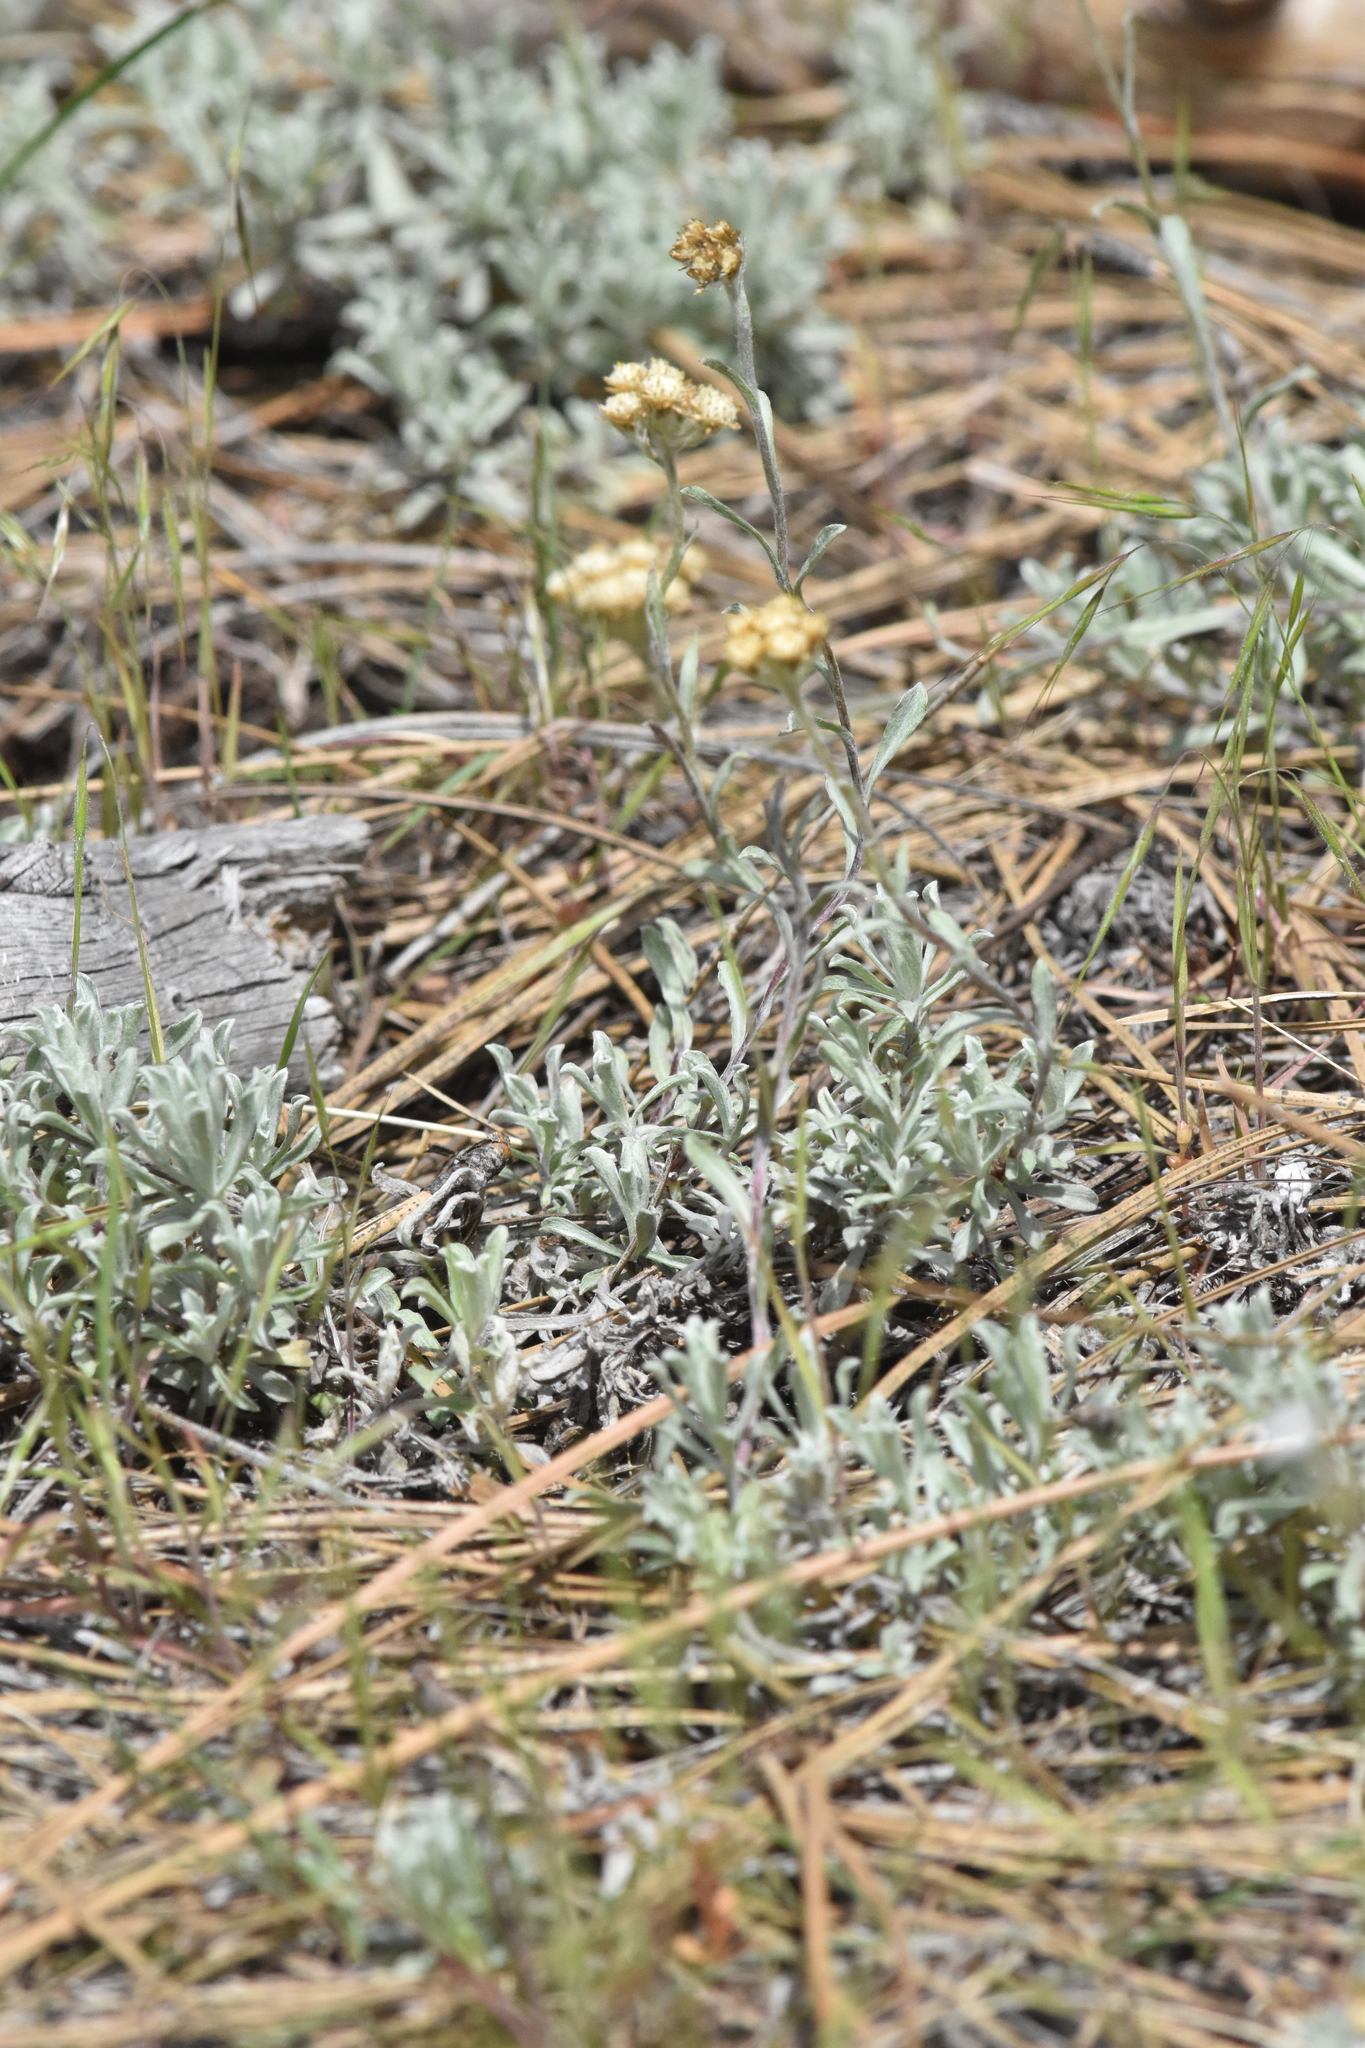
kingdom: Plantae
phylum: Tracheophyta
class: Magnoliopsida
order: Asterales
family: Asteraceae
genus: Antennaria
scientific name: Antennaria umbrinella
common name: Brown pussytoes
